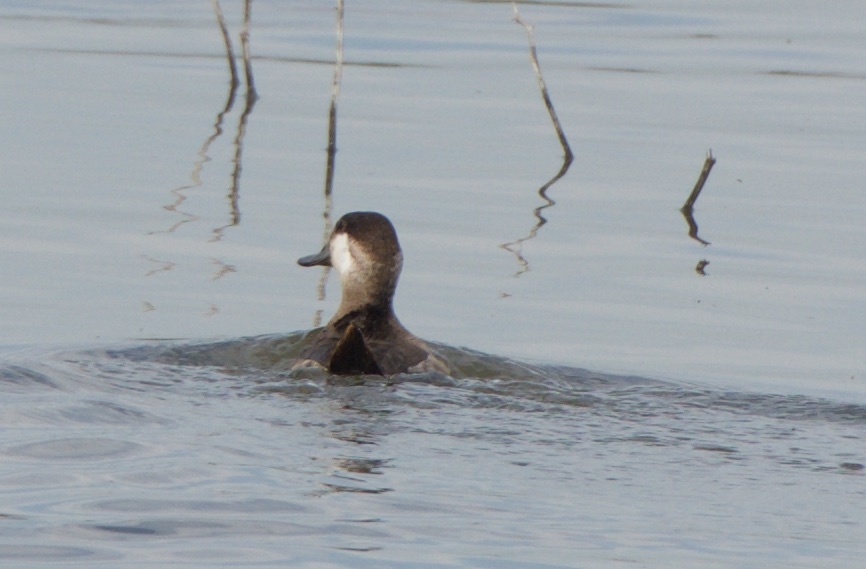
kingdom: Animalia
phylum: Chordata
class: Aves
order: Anseriformes
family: Anatidae
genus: Oxyura
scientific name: Oxyura jamaicensis
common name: Ruddy duck
